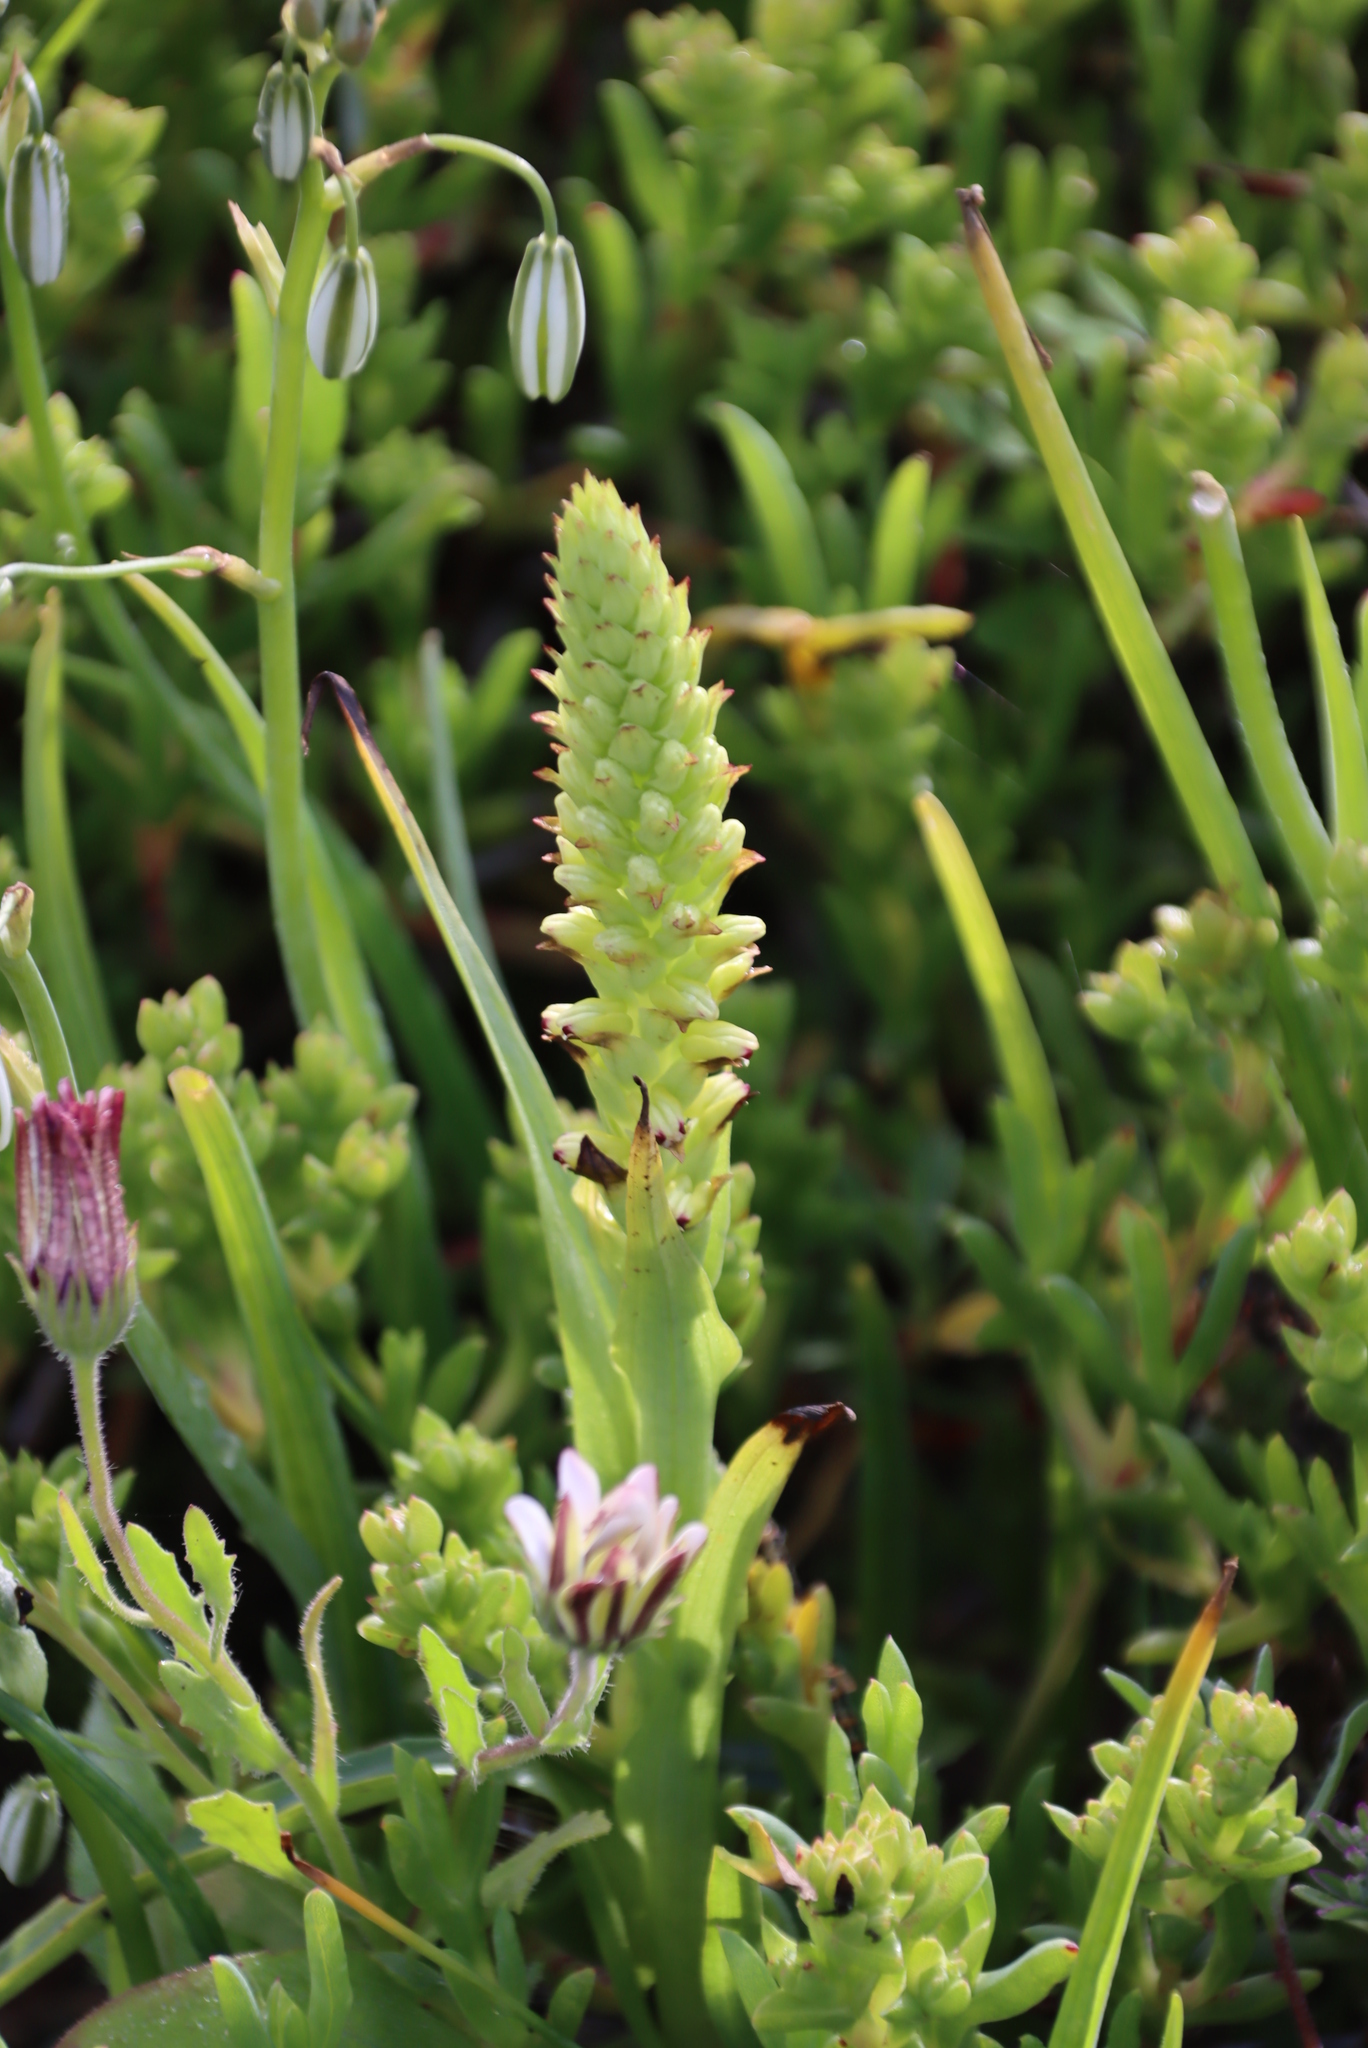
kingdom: Plantae
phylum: Tracheophyta
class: Liliopsida
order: Asparagales
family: Orchidaceae
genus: Corycium
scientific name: Corycium orobanchoides
